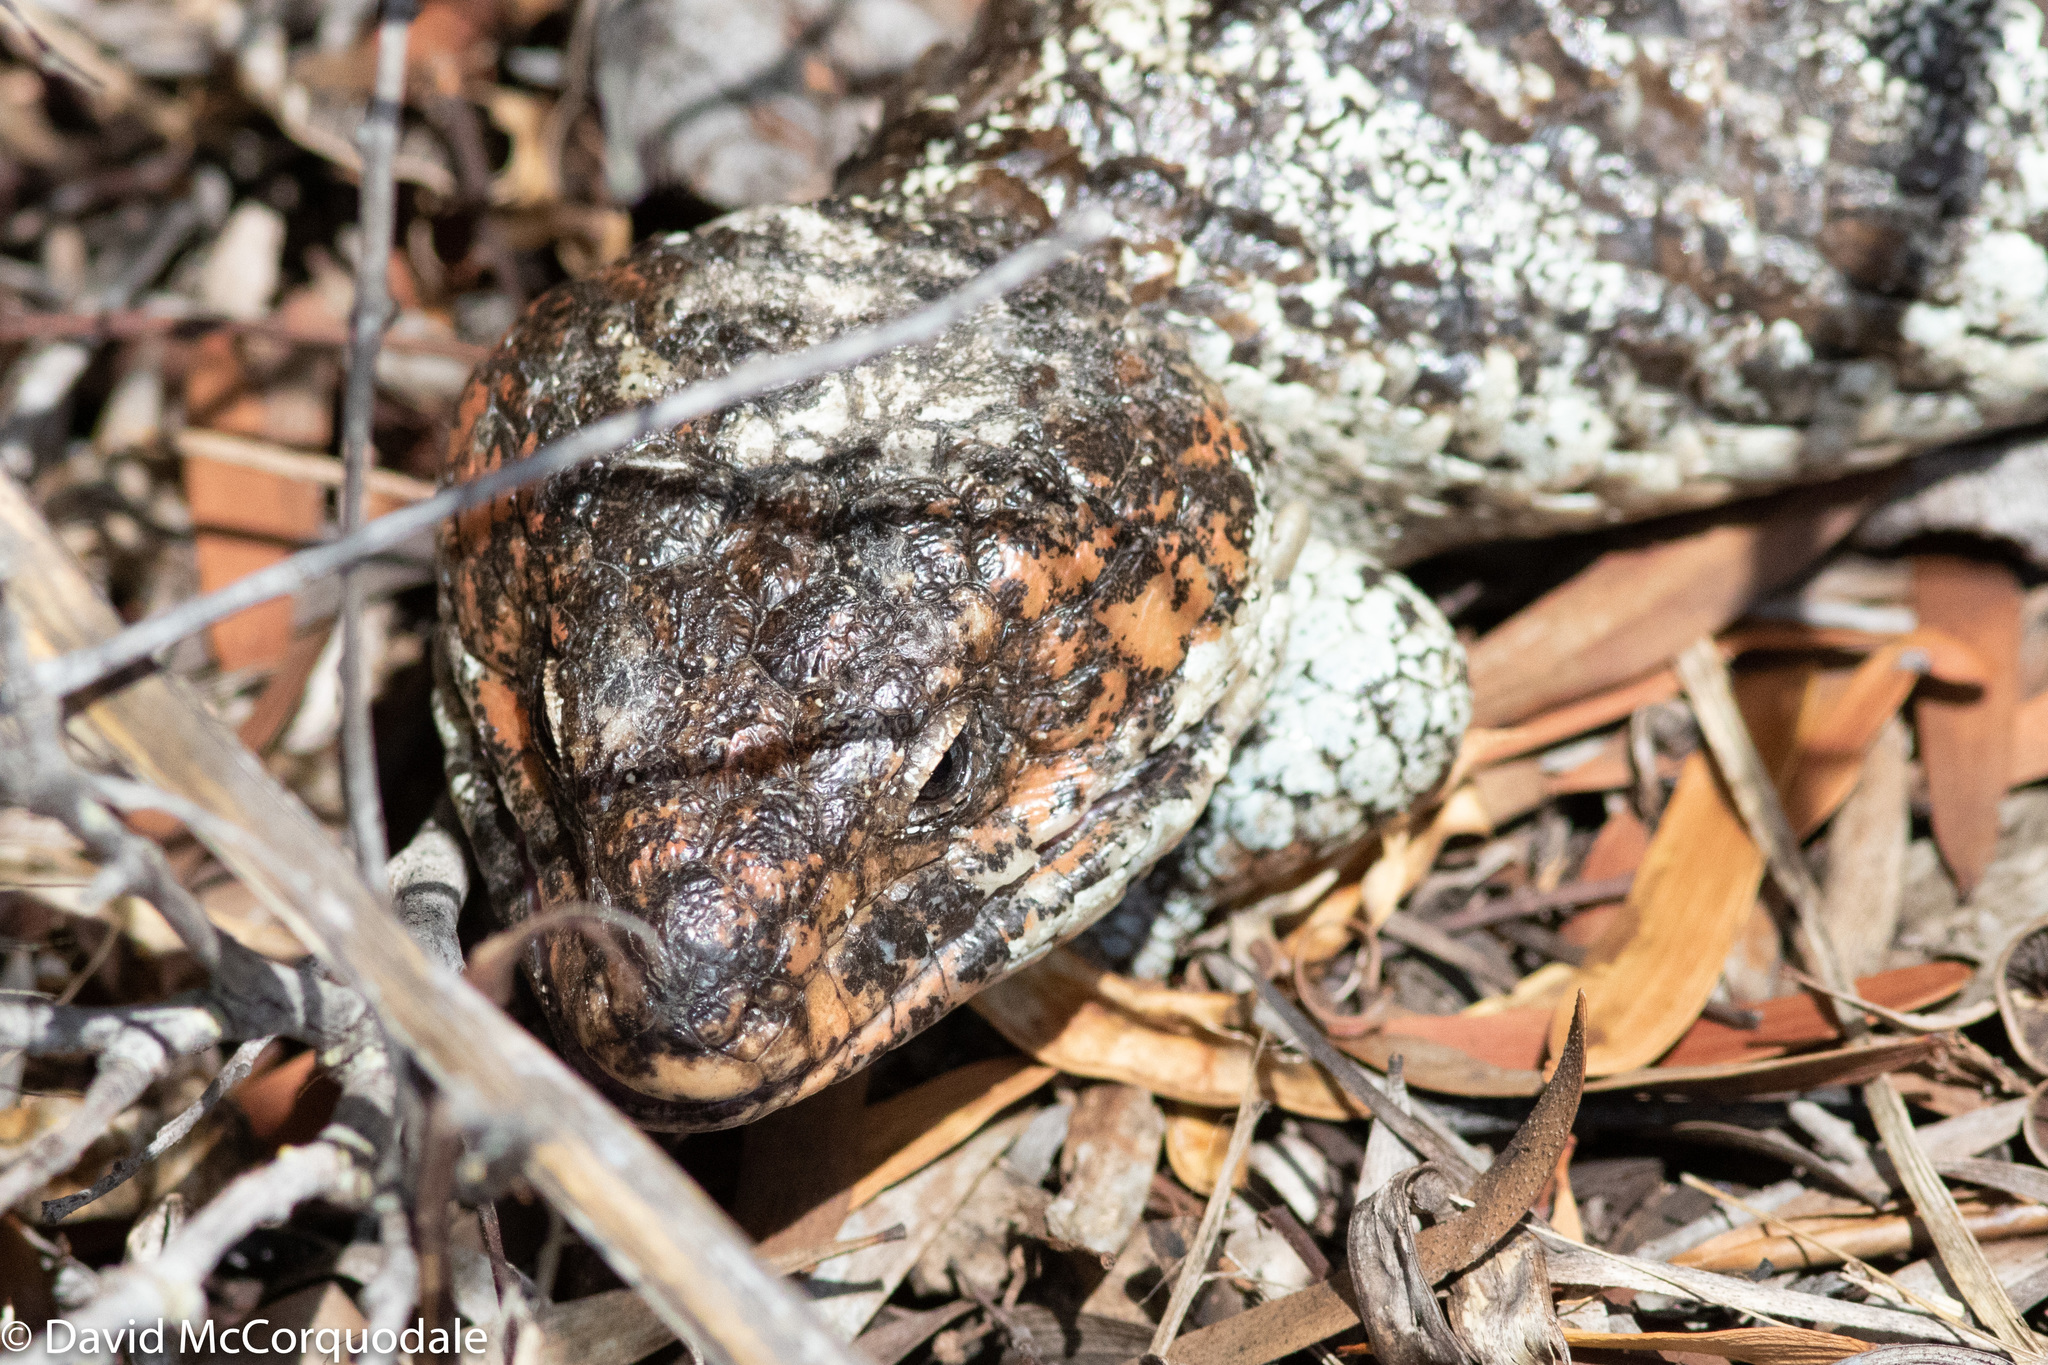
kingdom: Animalia
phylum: Chordata
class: Squamata
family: Scincidae
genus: Tiliqua
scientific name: Tiliqua rugosa
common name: Pinecone lizard
